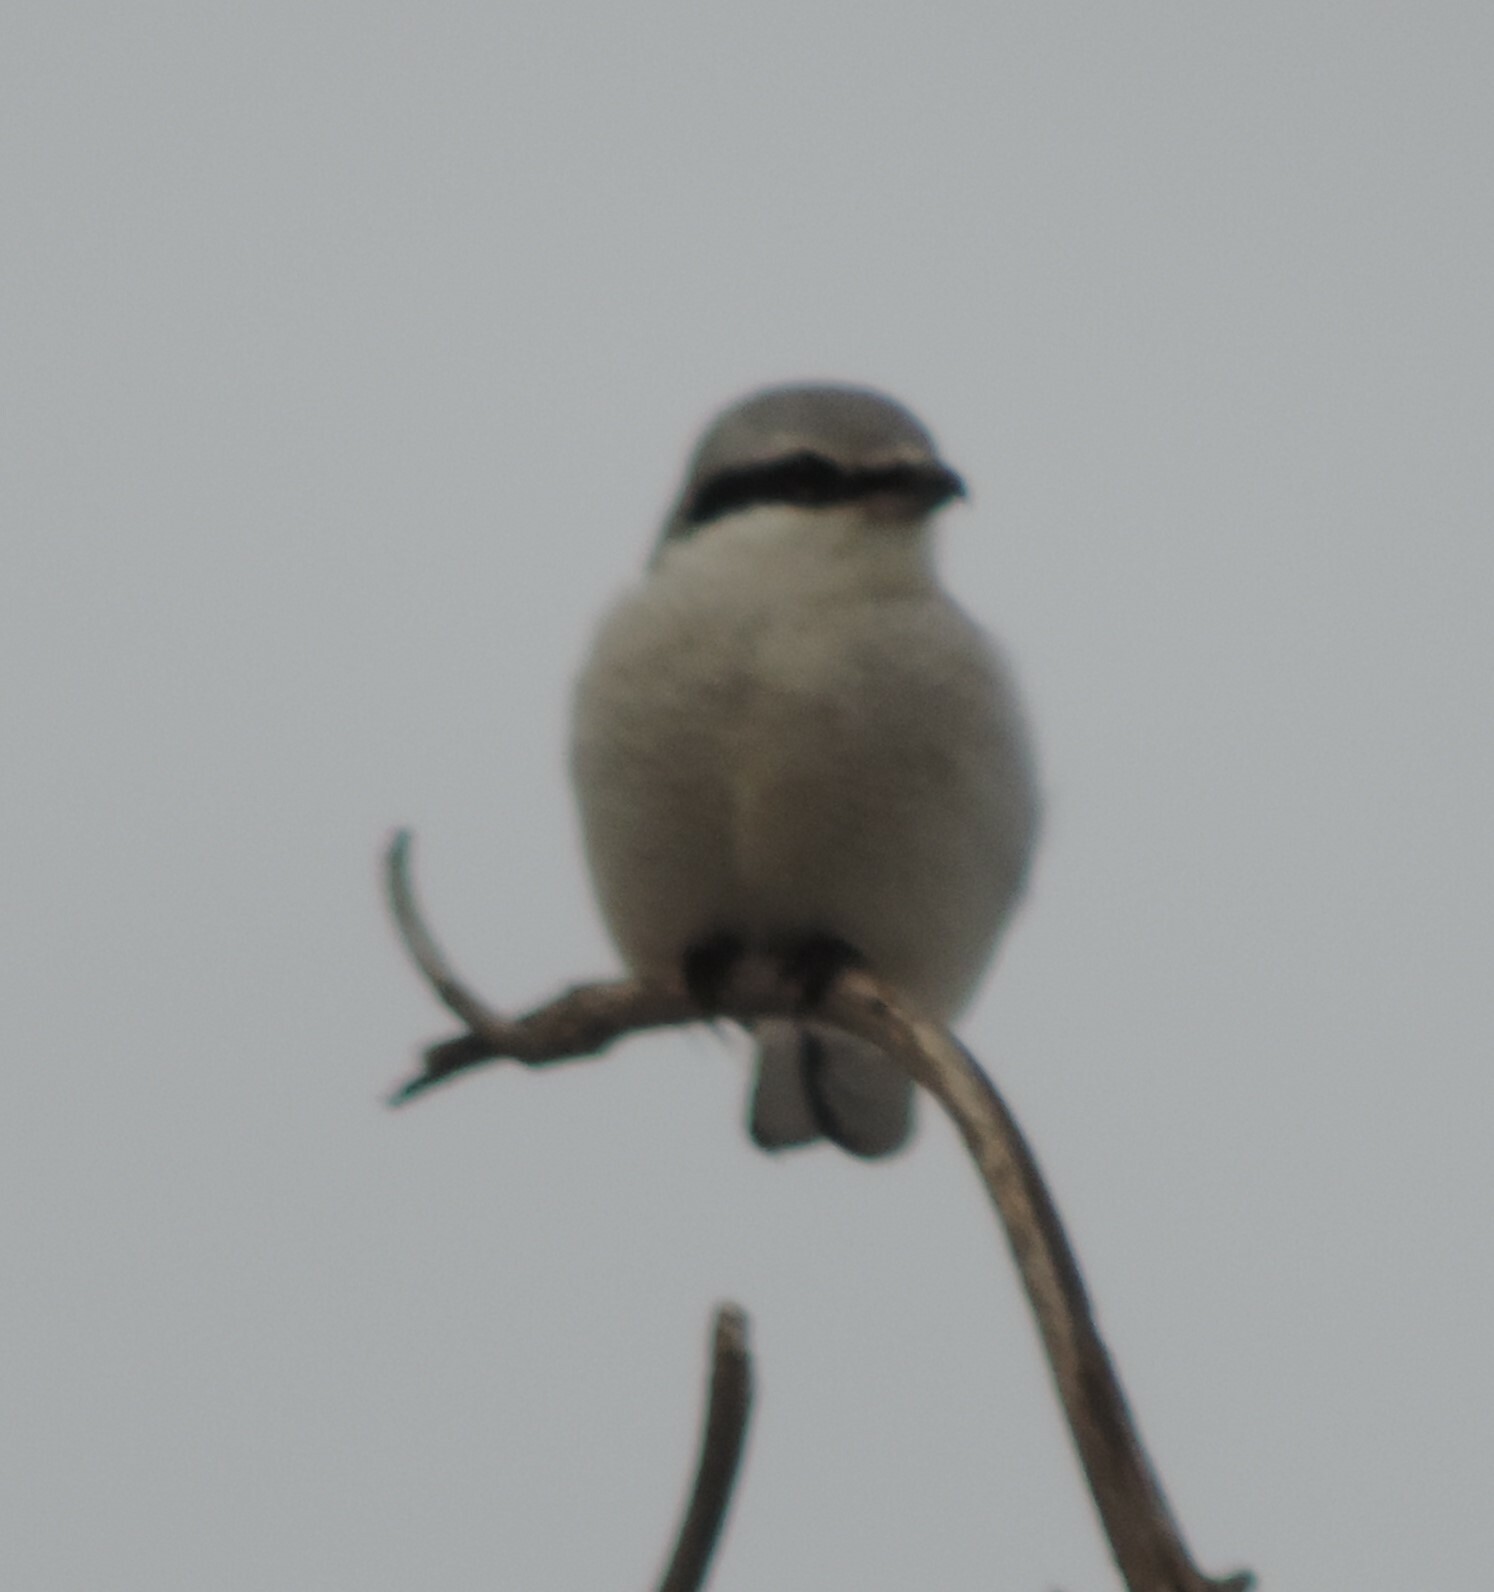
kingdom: Animalia
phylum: Chordata
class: Aves
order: Passeriformes
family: Laniidae
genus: Lanius
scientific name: Lanius borealis
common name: Northern shrike
